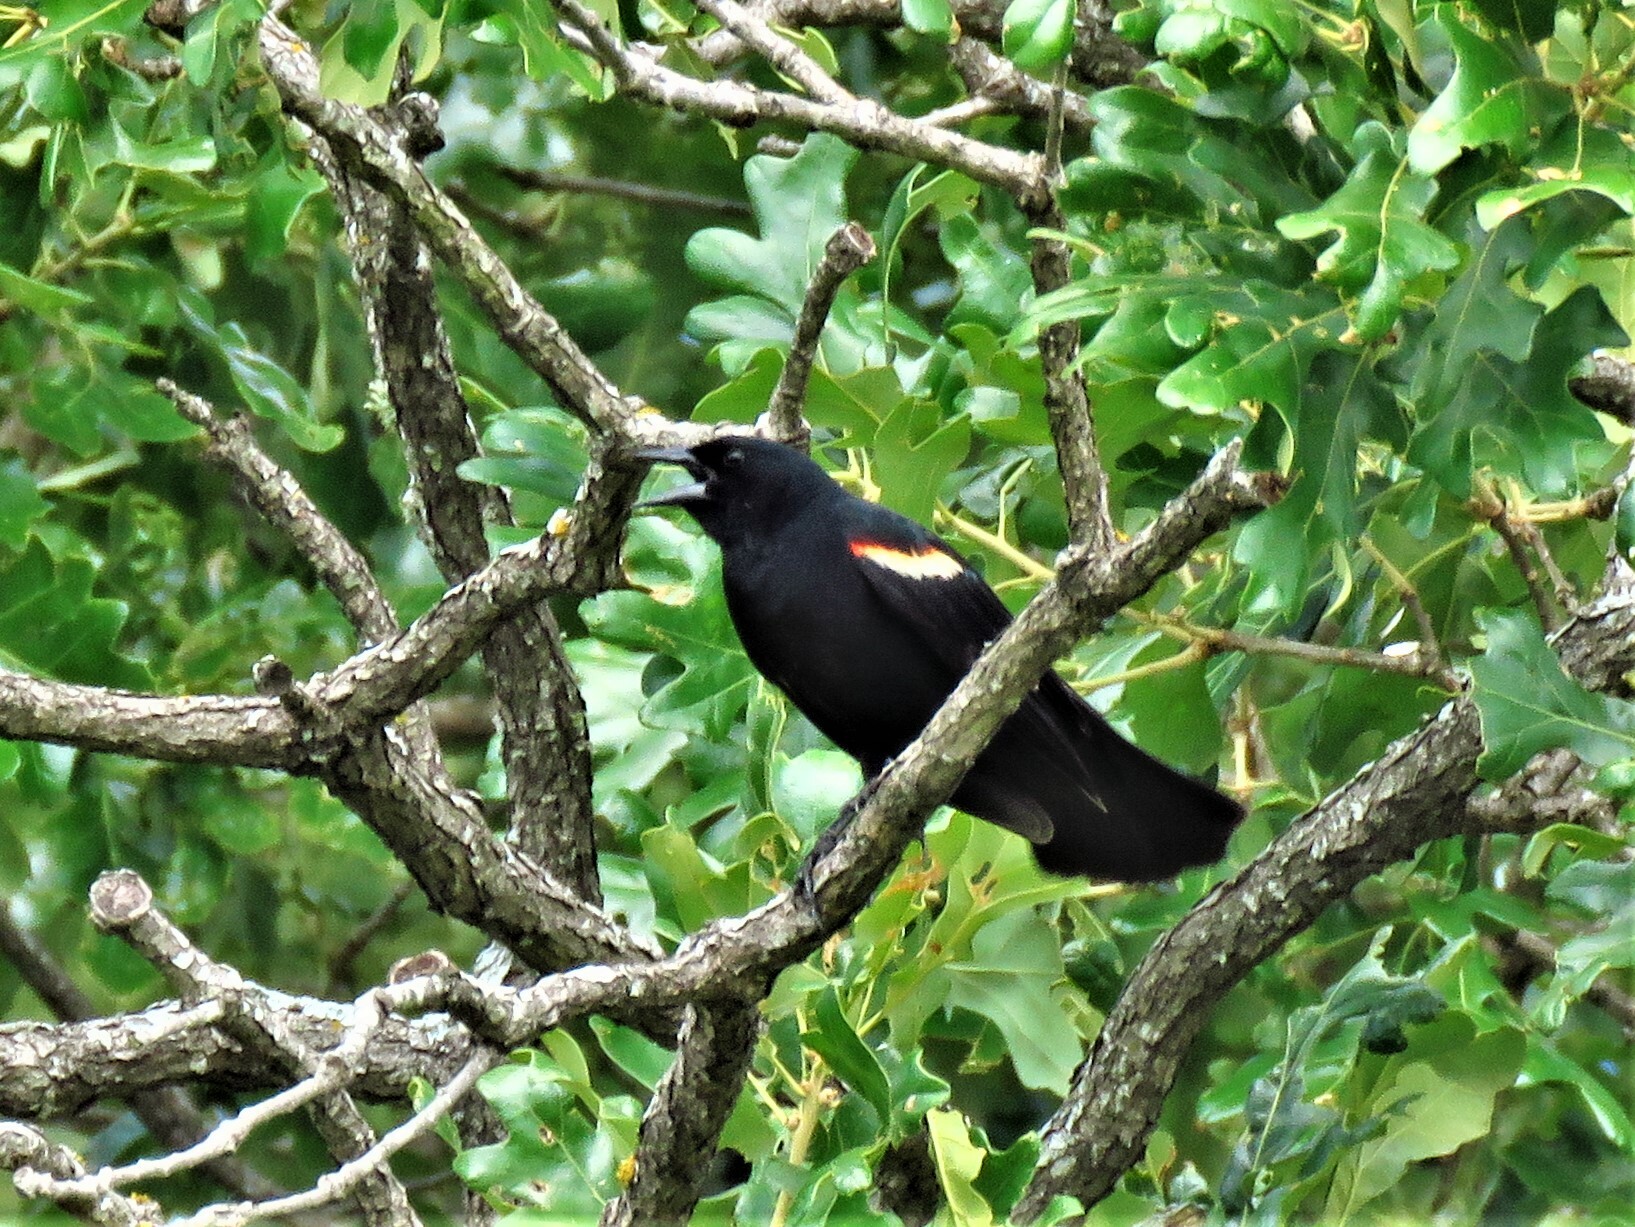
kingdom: Animalia
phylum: Chordata
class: Aves
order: Passeriformes
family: Icteridae
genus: Agelaius
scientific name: Agelaius phoeniceus
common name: Red-winged blackbird
